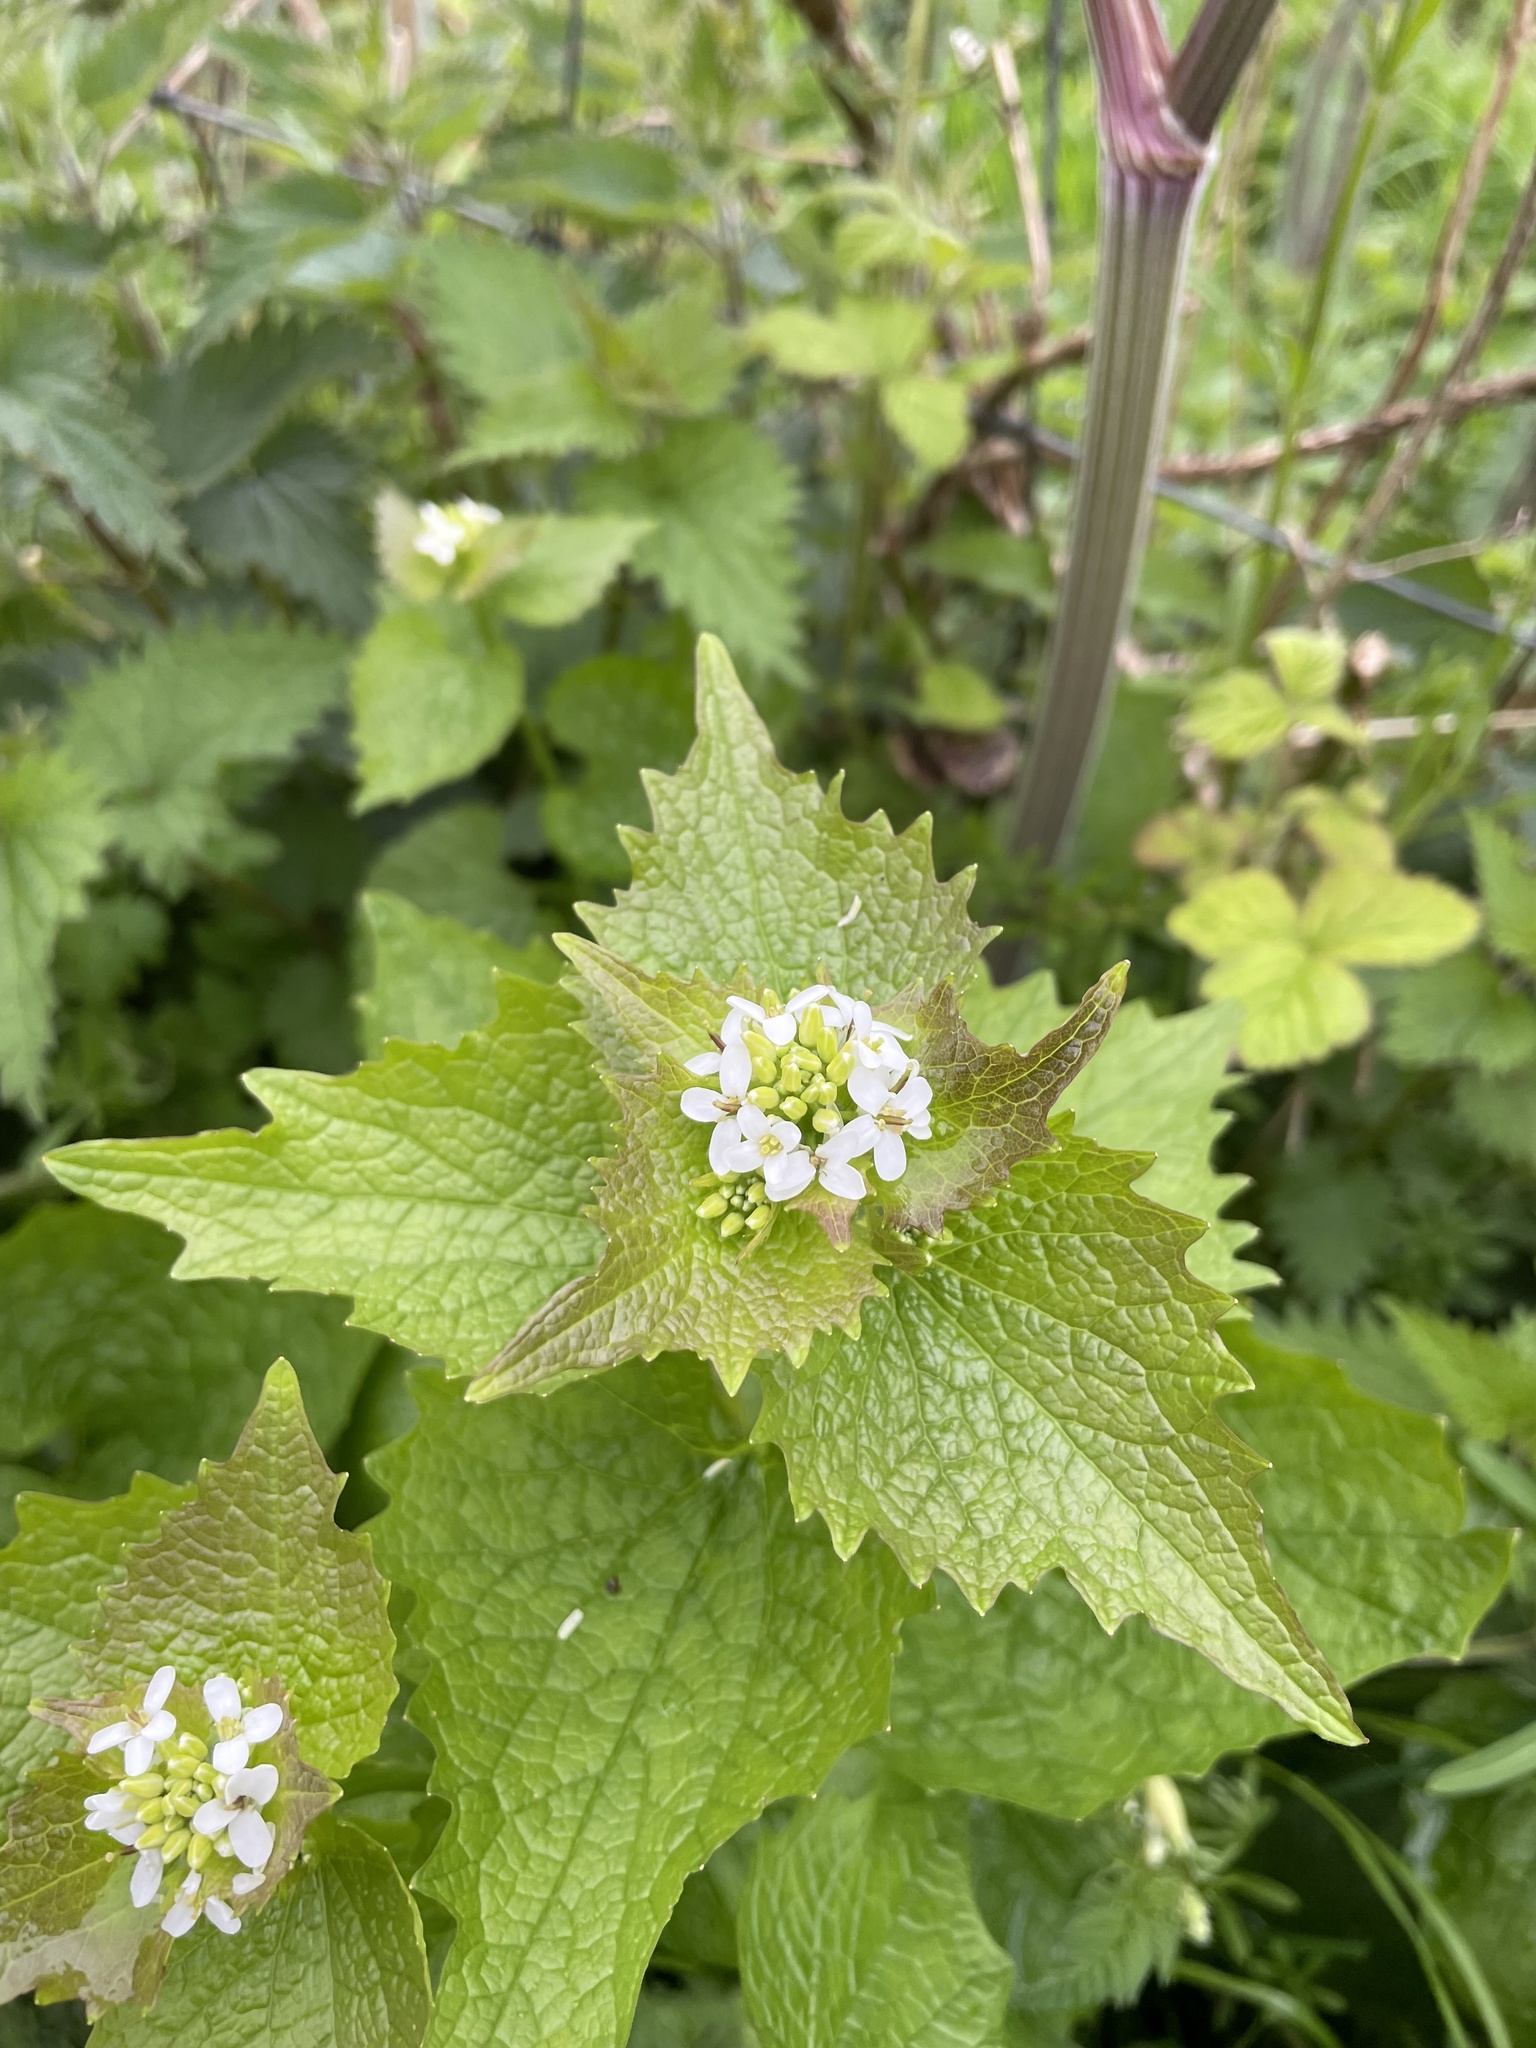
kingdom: Plantae
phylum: Tracheophyta
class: Magnoliopsida
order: Brassicales
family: Brassicaceae
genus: Alliaria
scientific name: Alliaria petiolata
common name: Garlic mustard
